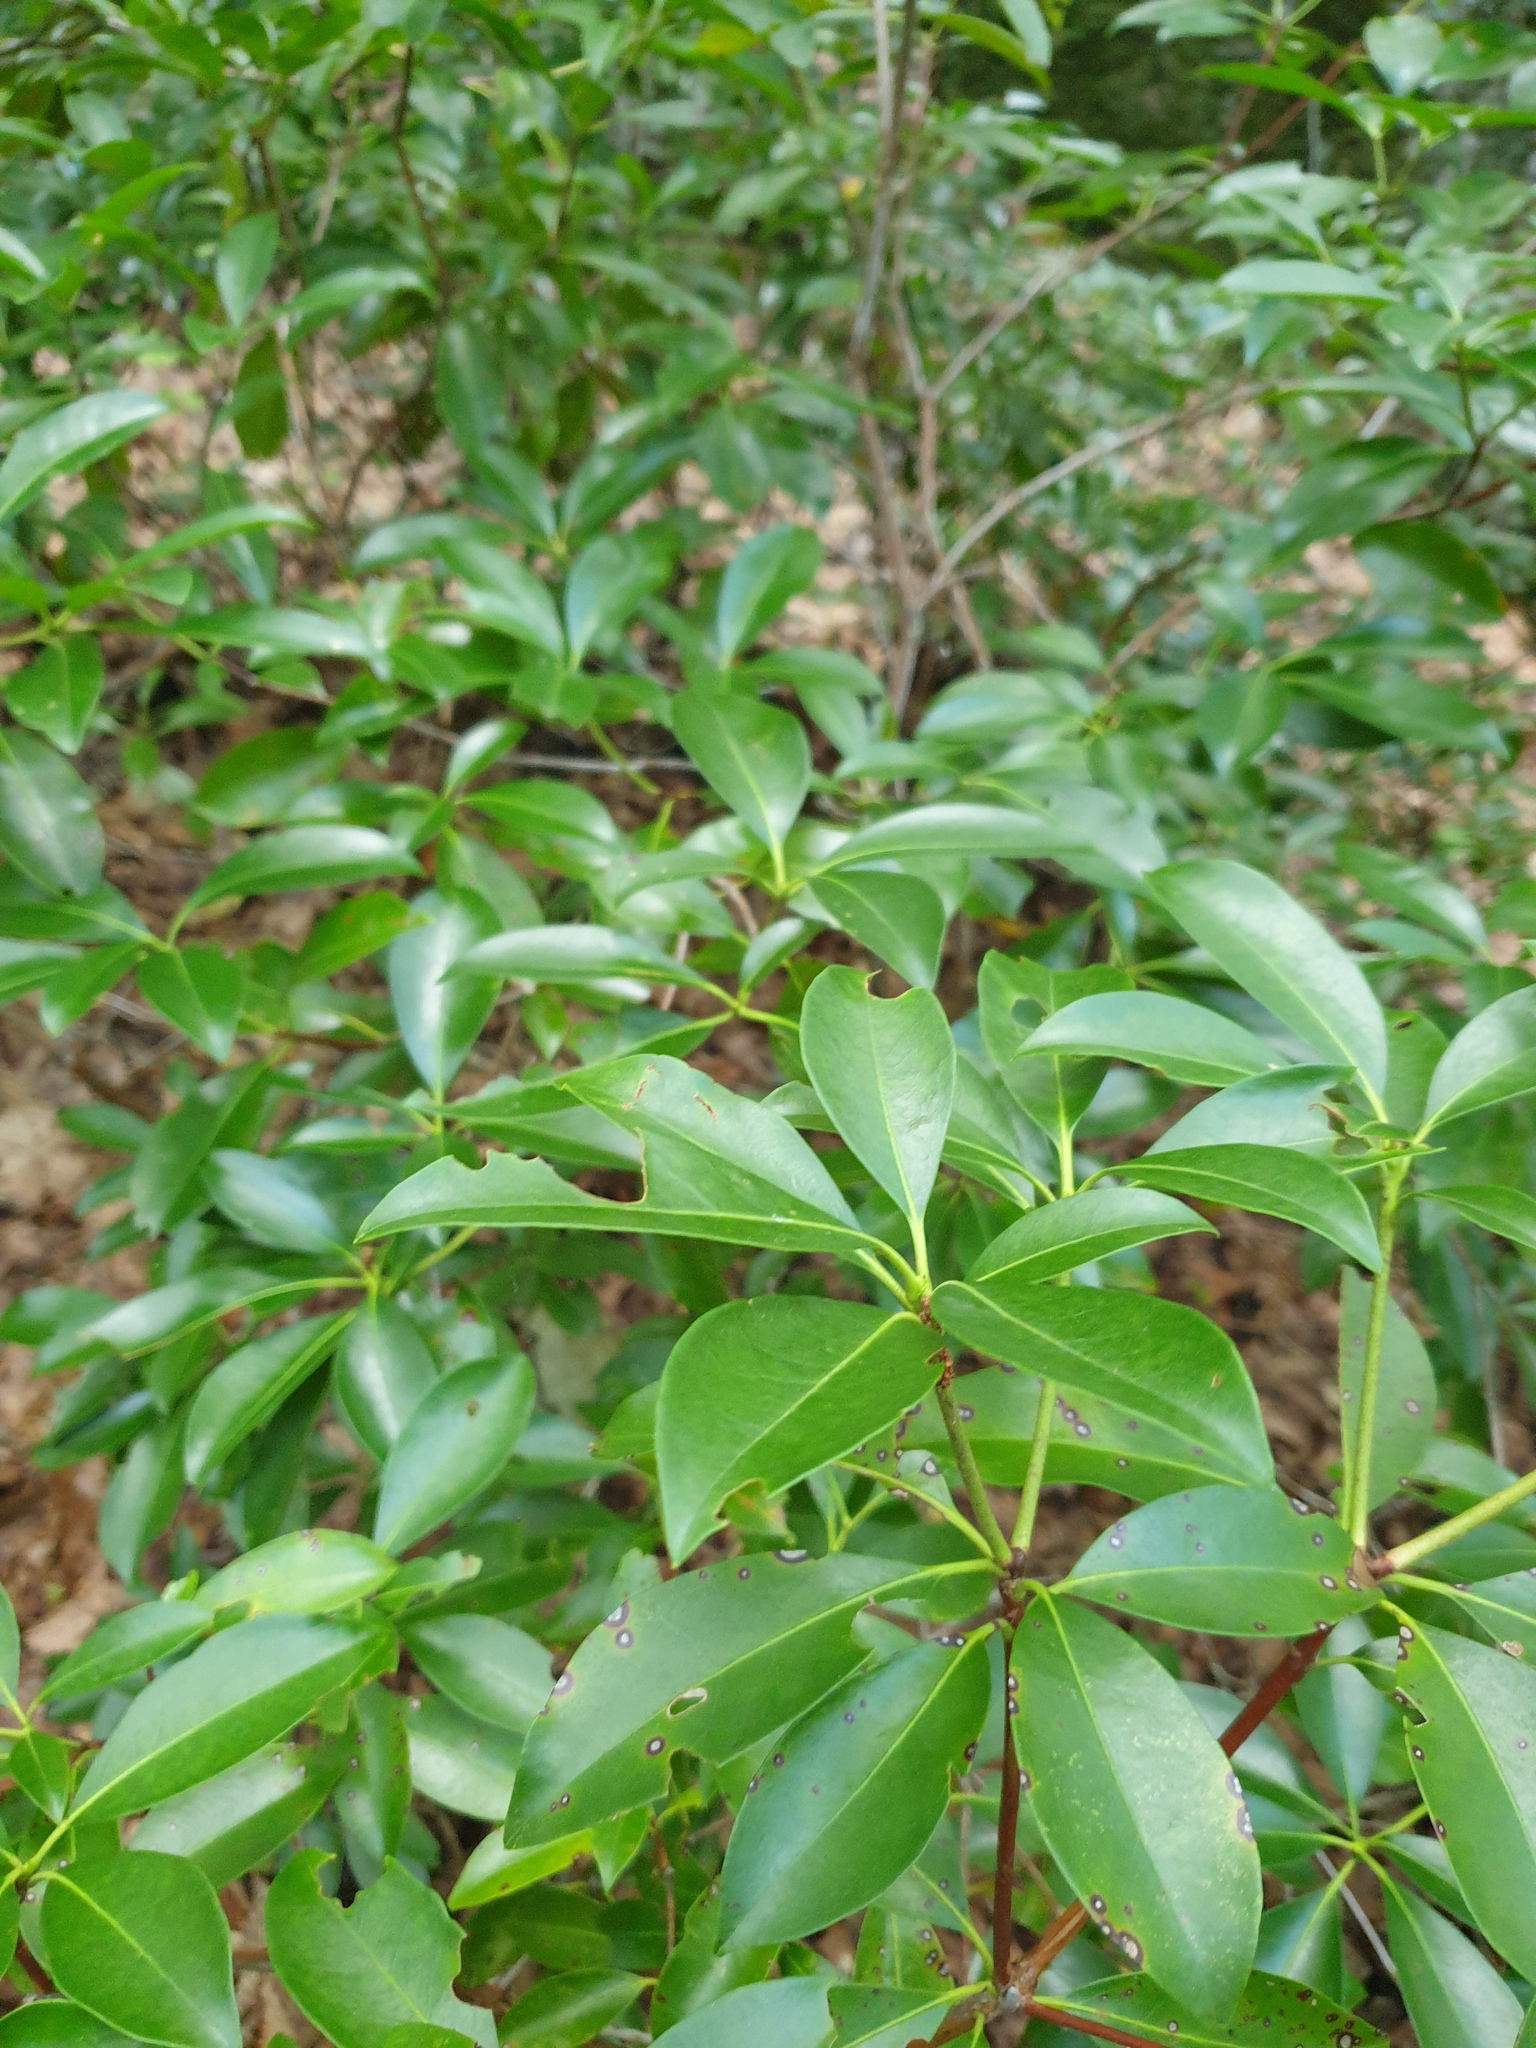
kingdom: Plantae
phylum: Tracheophyta
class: Magnoliopsida
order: Ericales
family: Ericaceae
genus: Kalmia
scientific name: Kalmia latifolia
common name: Mountain-laurel
